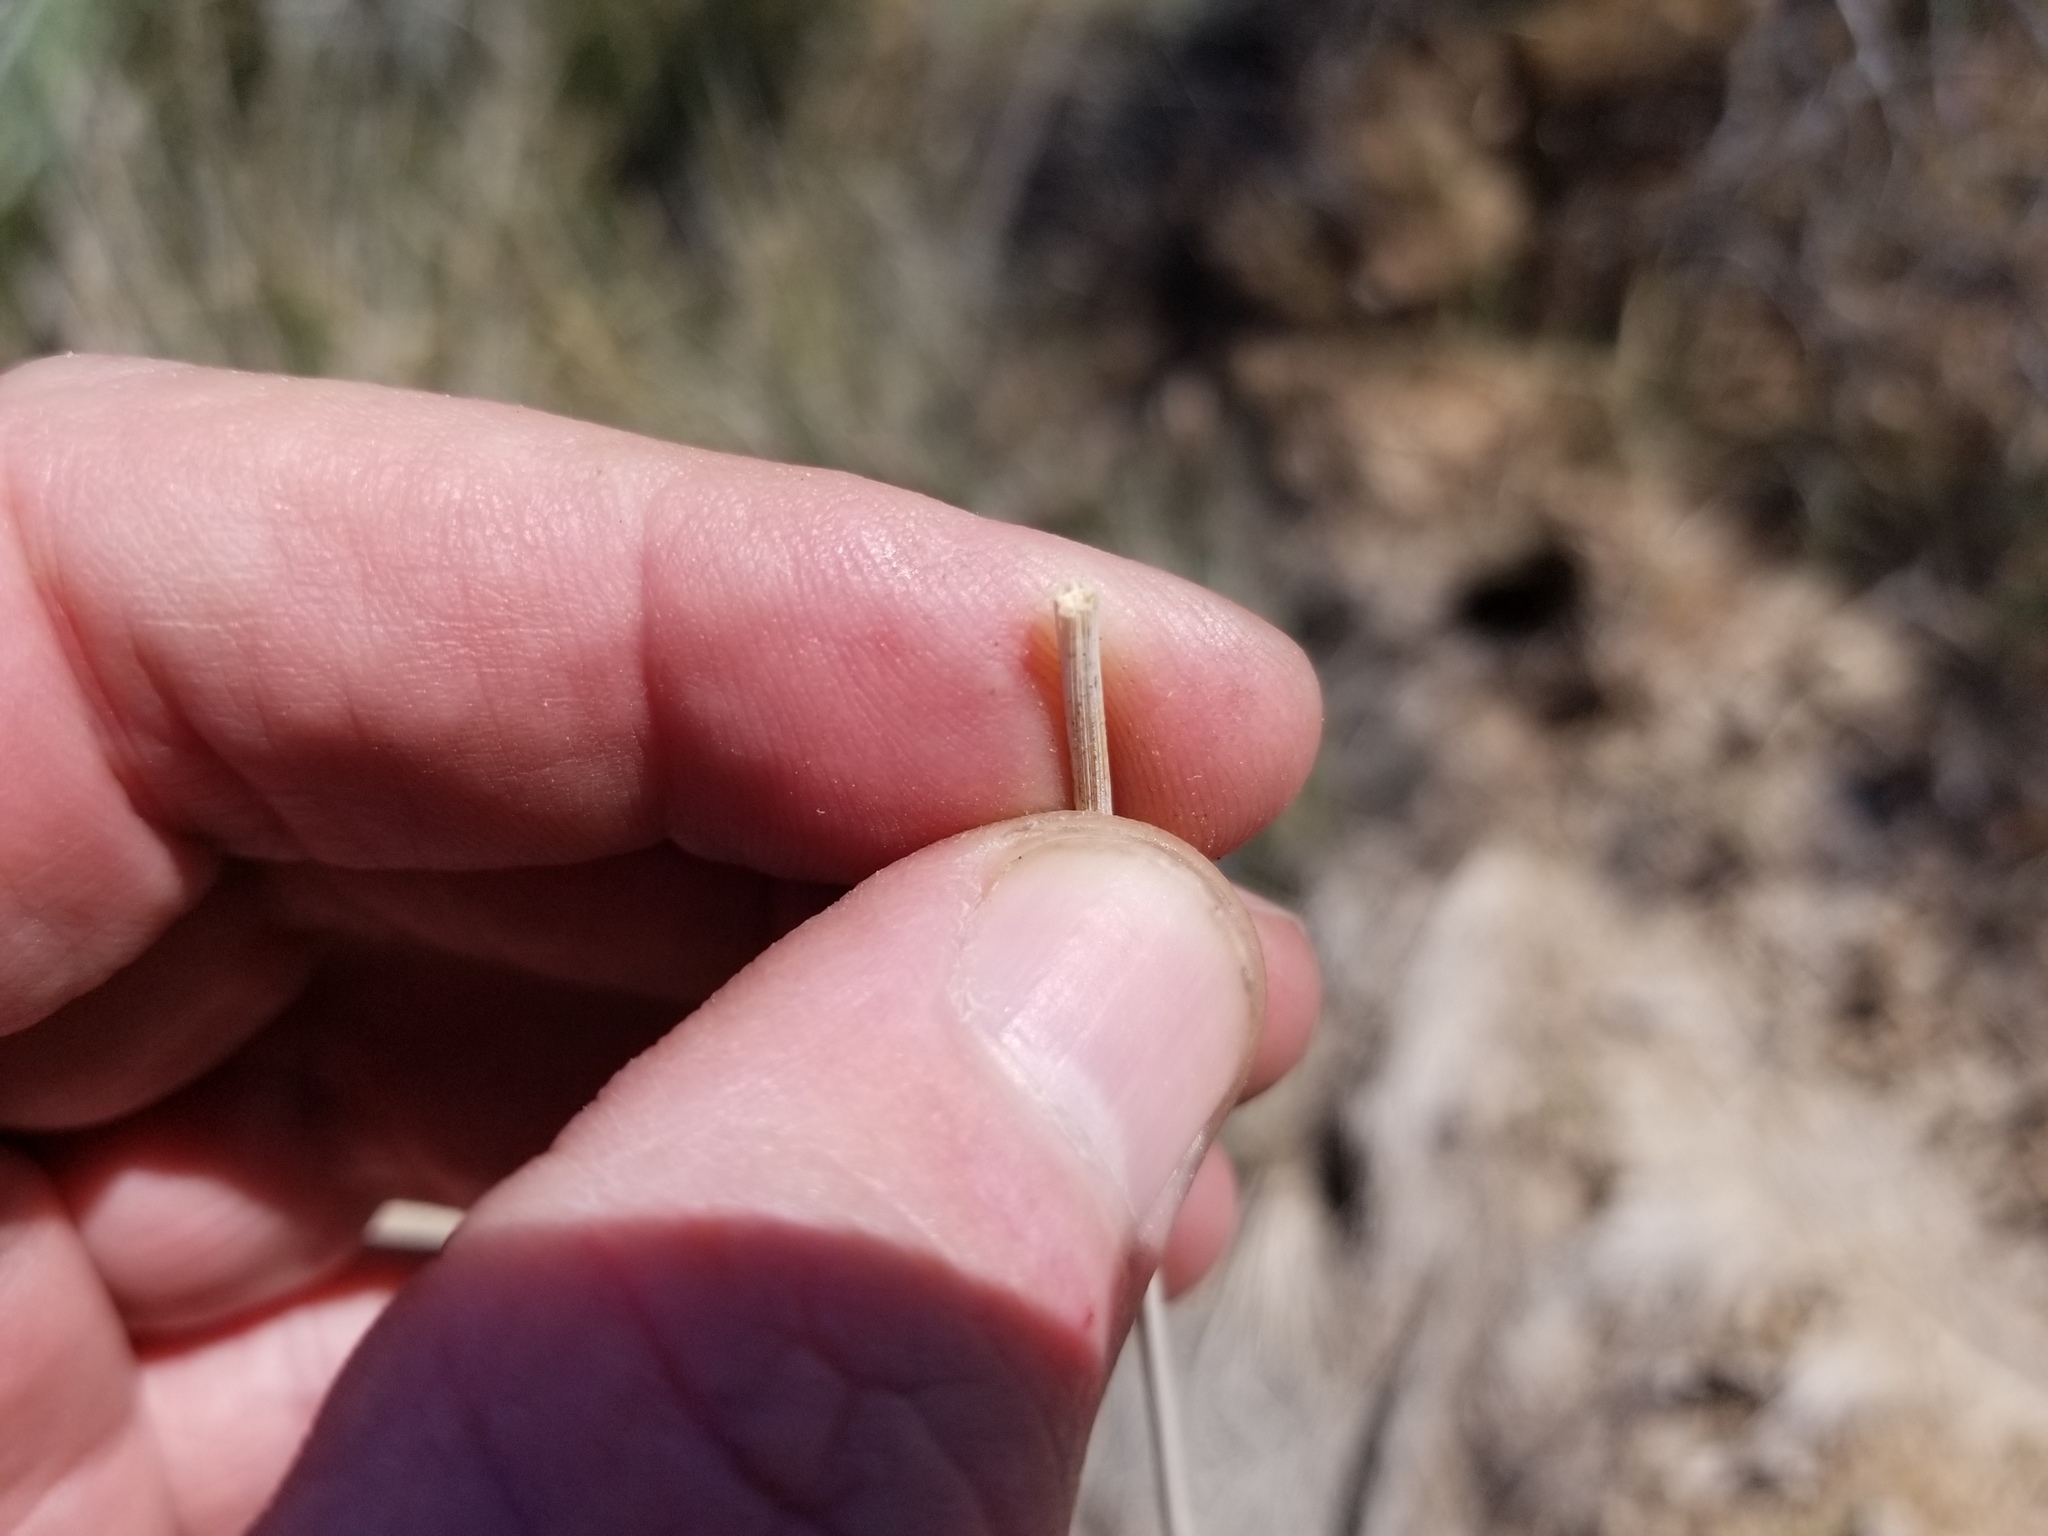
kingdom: Plantae
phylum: Tracheophyta
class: Liliopsida
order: Poales
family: Juncaceae
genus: Juncus
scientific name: Juncus cooperi
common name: Cooper's rush
